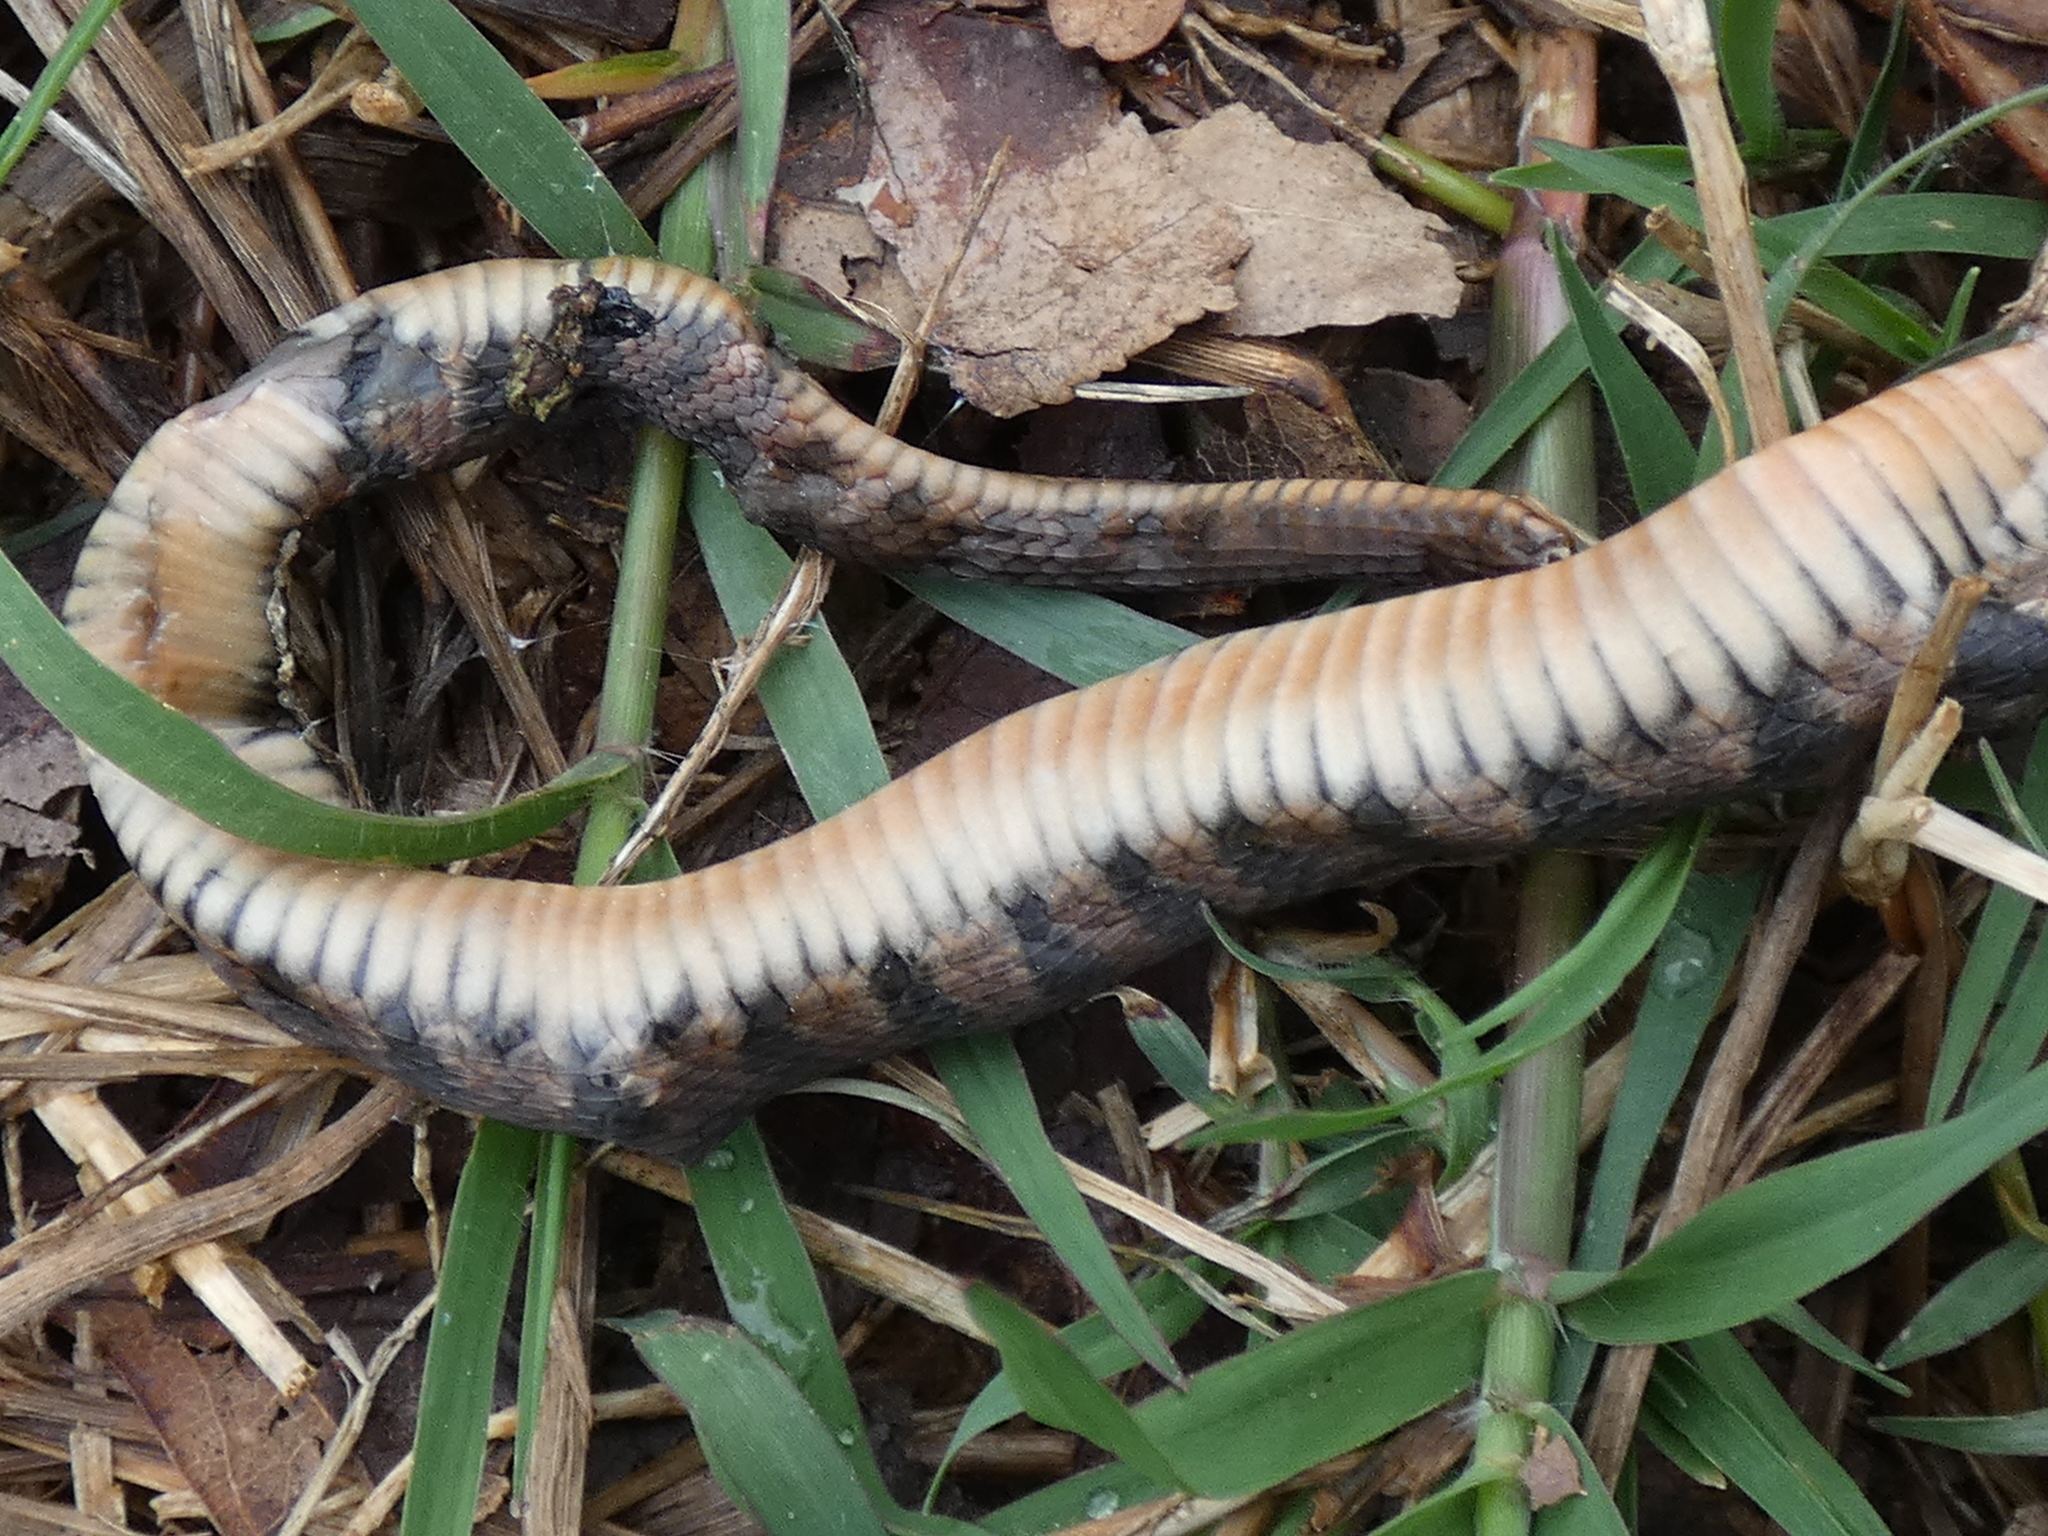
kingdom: Animalia
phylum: Chordata
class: Squamata
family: Colubridae
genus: Nerodia
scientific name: Nerodia erythrogaster
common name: Plainbelly water snake
